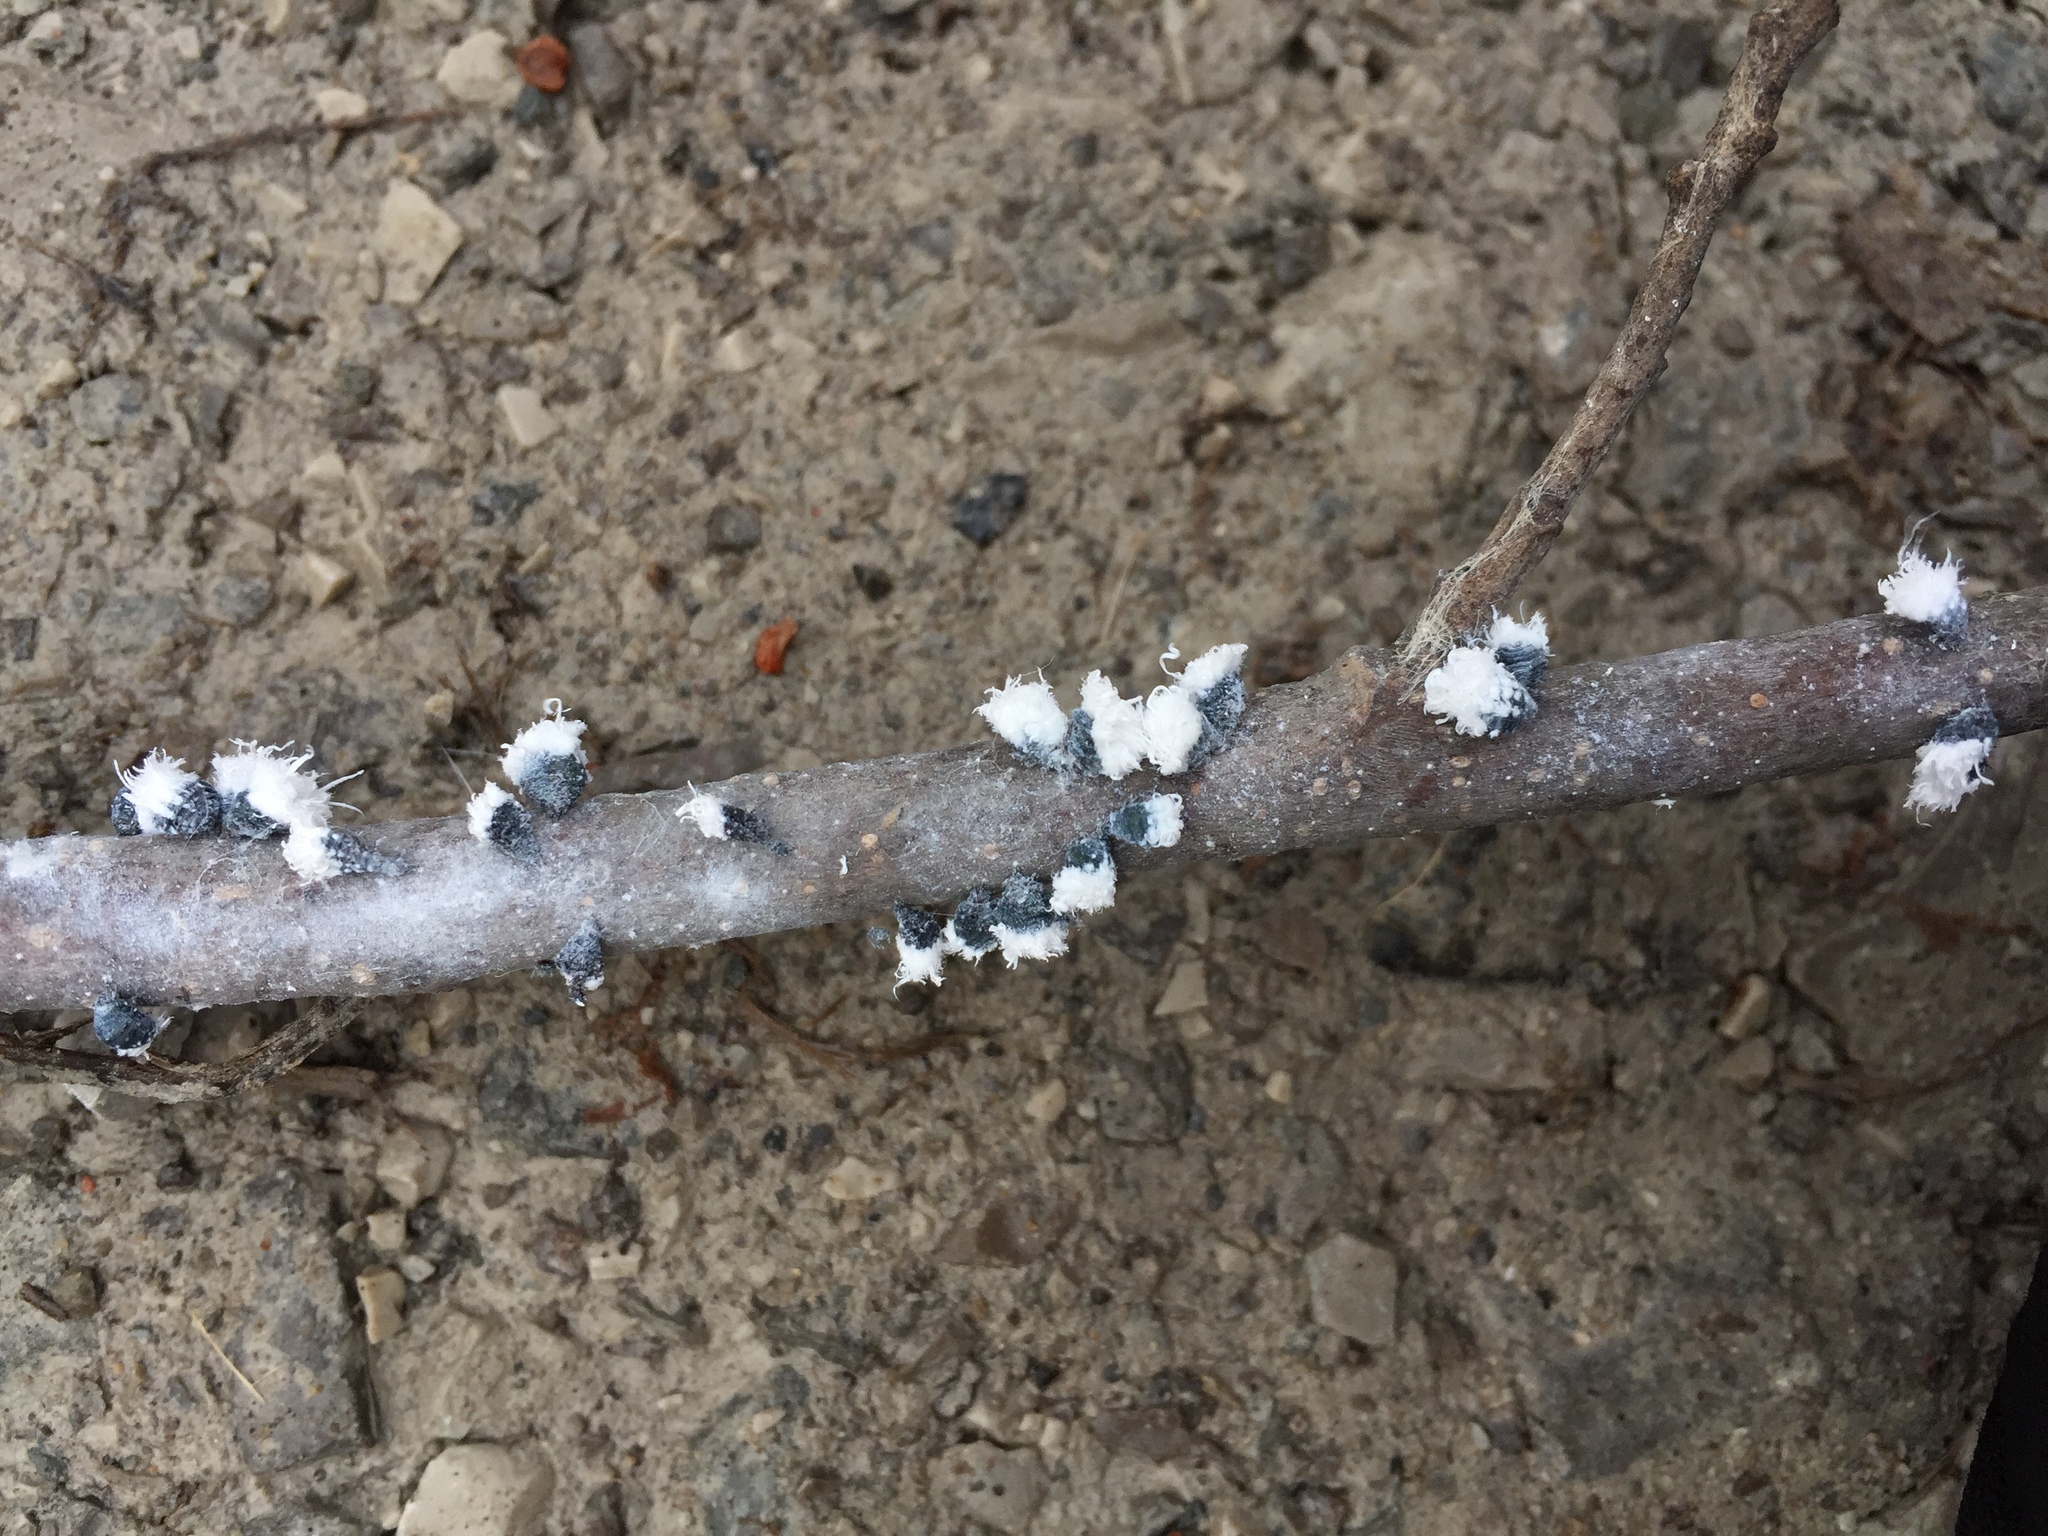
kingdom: Animalia
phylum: Arthropoda
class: Insecta
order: Hemiptera
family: Aphididae
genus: Prociphilus
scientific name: Prociphilus tessellatus
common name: Woolly alder aphid
